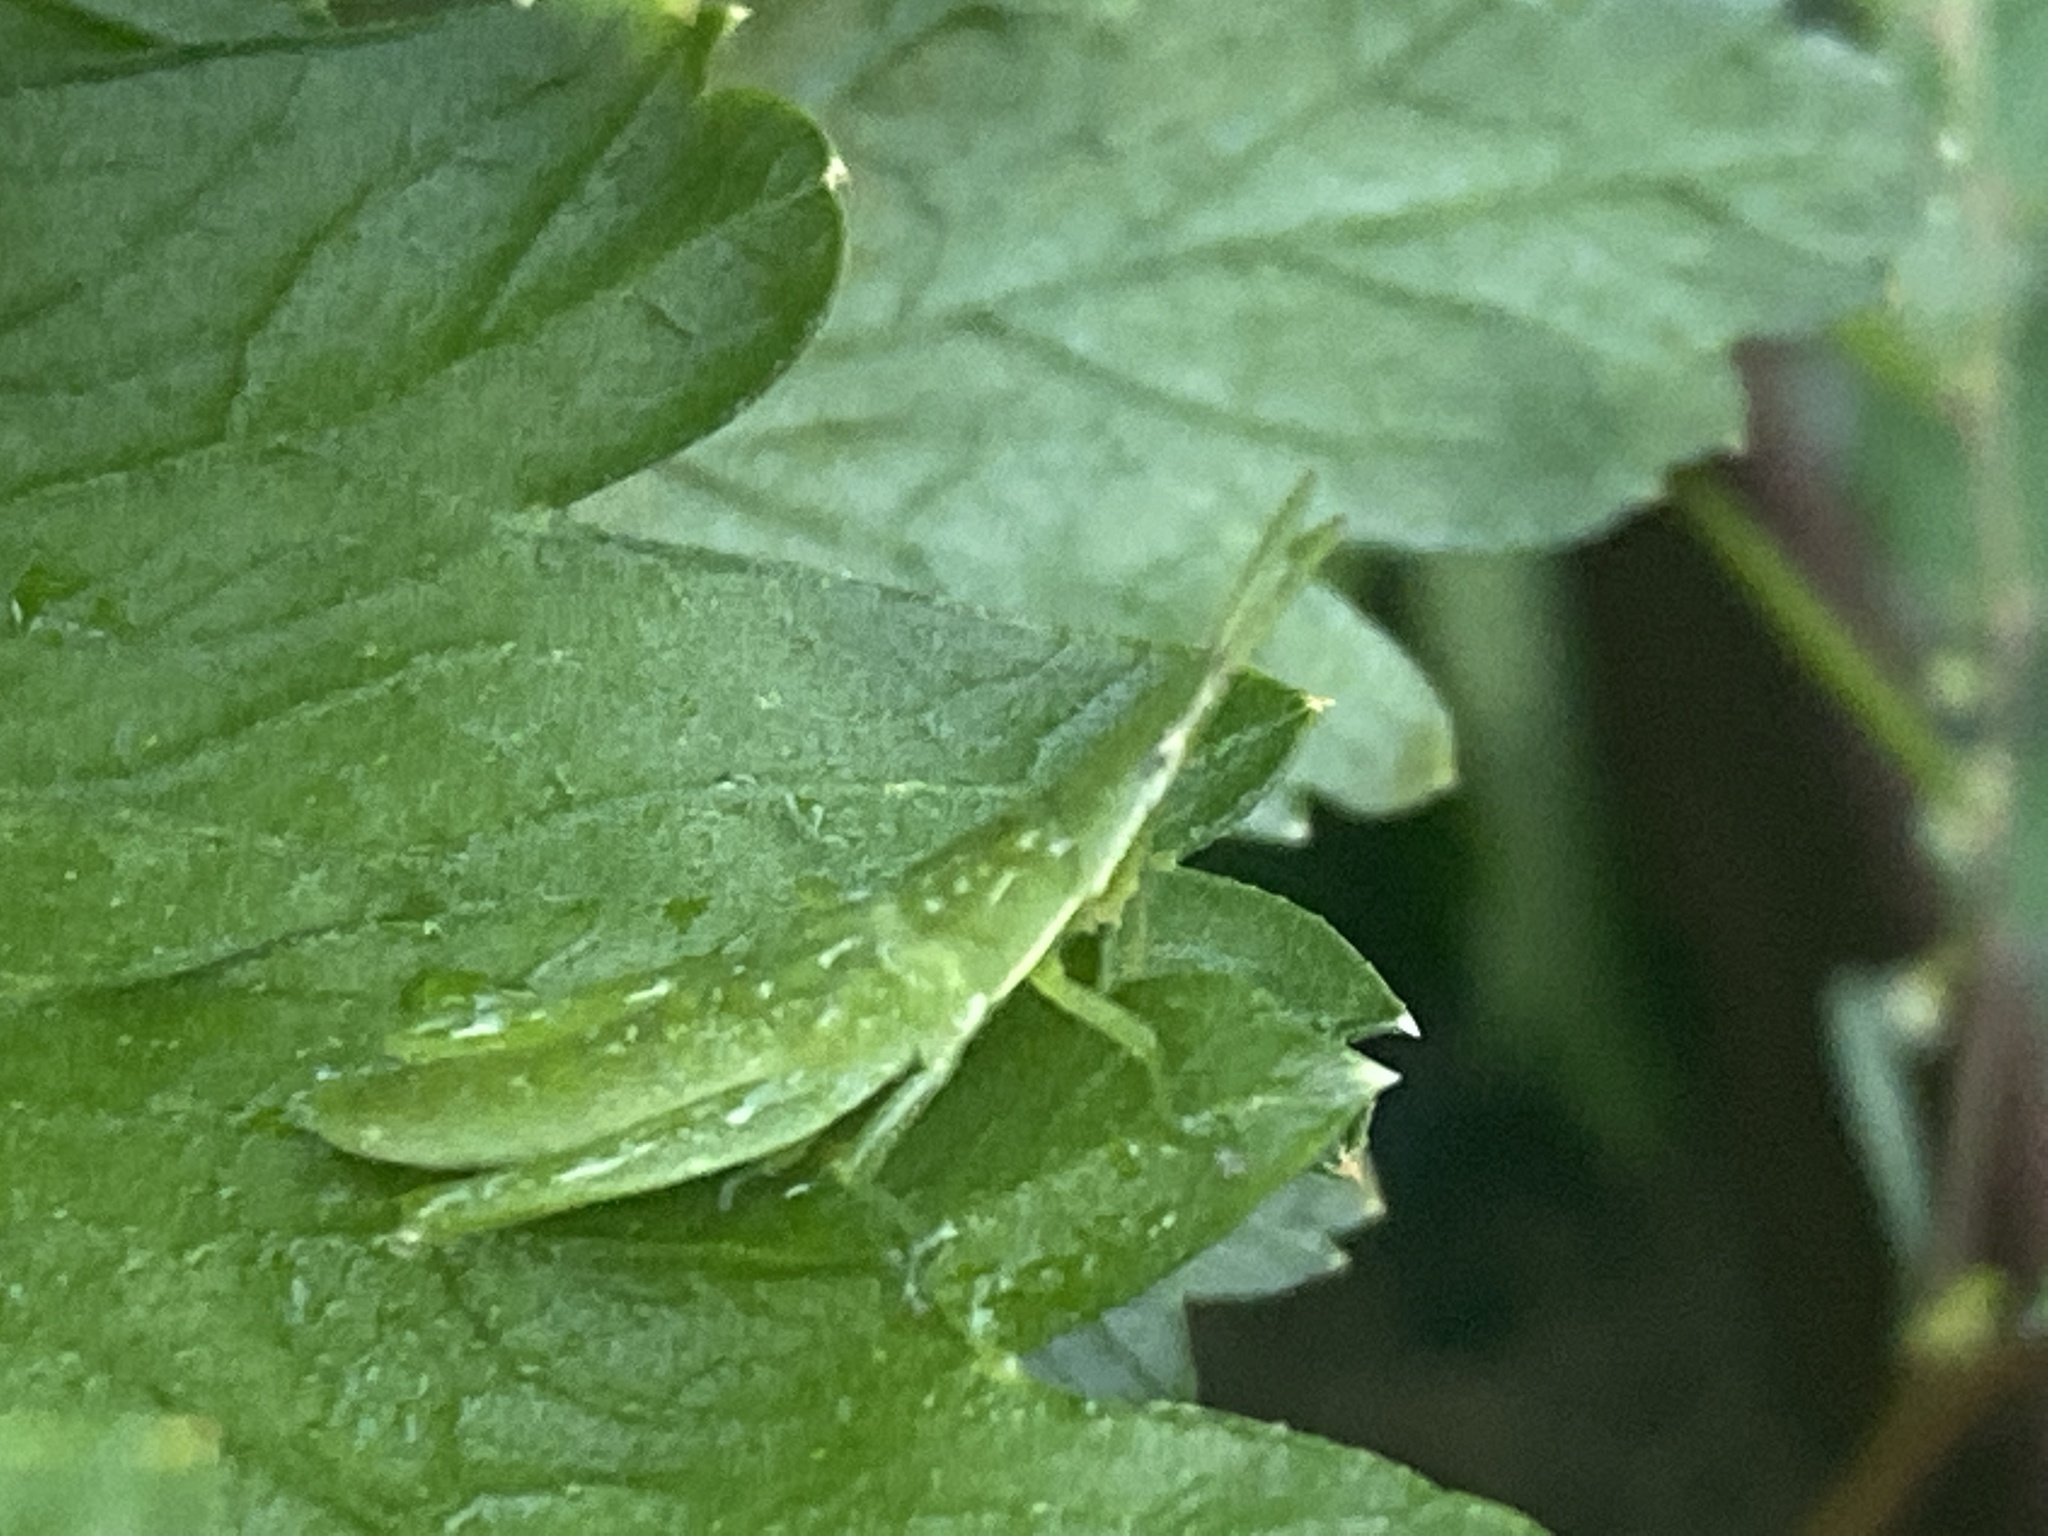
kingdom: Animalia
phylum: Arthropoda
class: Insecta
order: Orthoptera
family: Pyrgomorphidae
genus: Atractomorpha
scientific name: Atractomorpha australis
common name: Australian grass pyrgomorph
